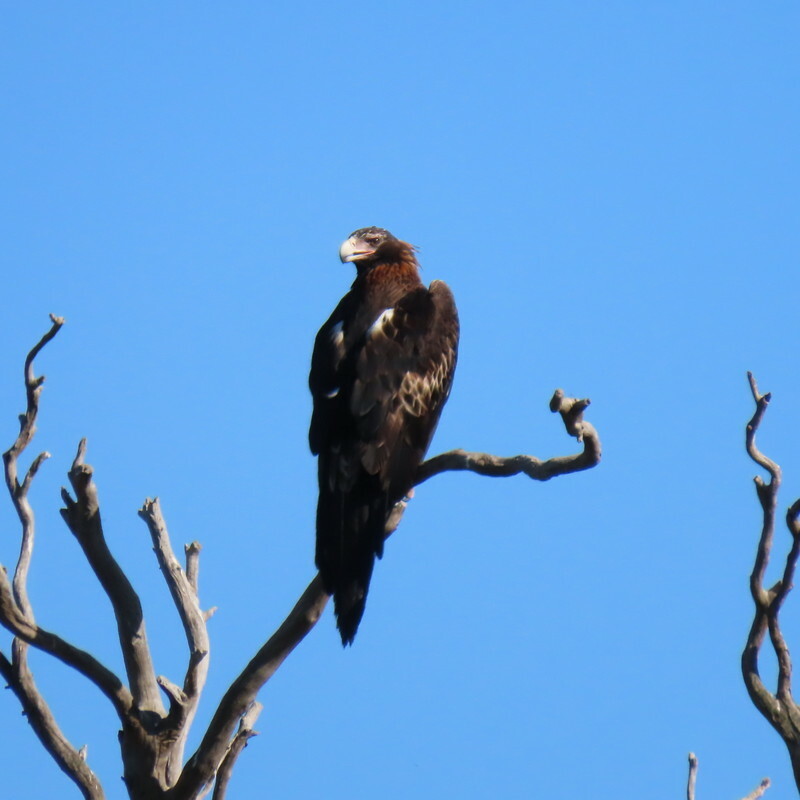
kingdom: Animalia
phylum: Chordata
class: Aves
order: Accipitriformes
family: Accipitridae
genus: Aquila
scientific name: Aquila audax
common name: Wedge-tailed eagle
